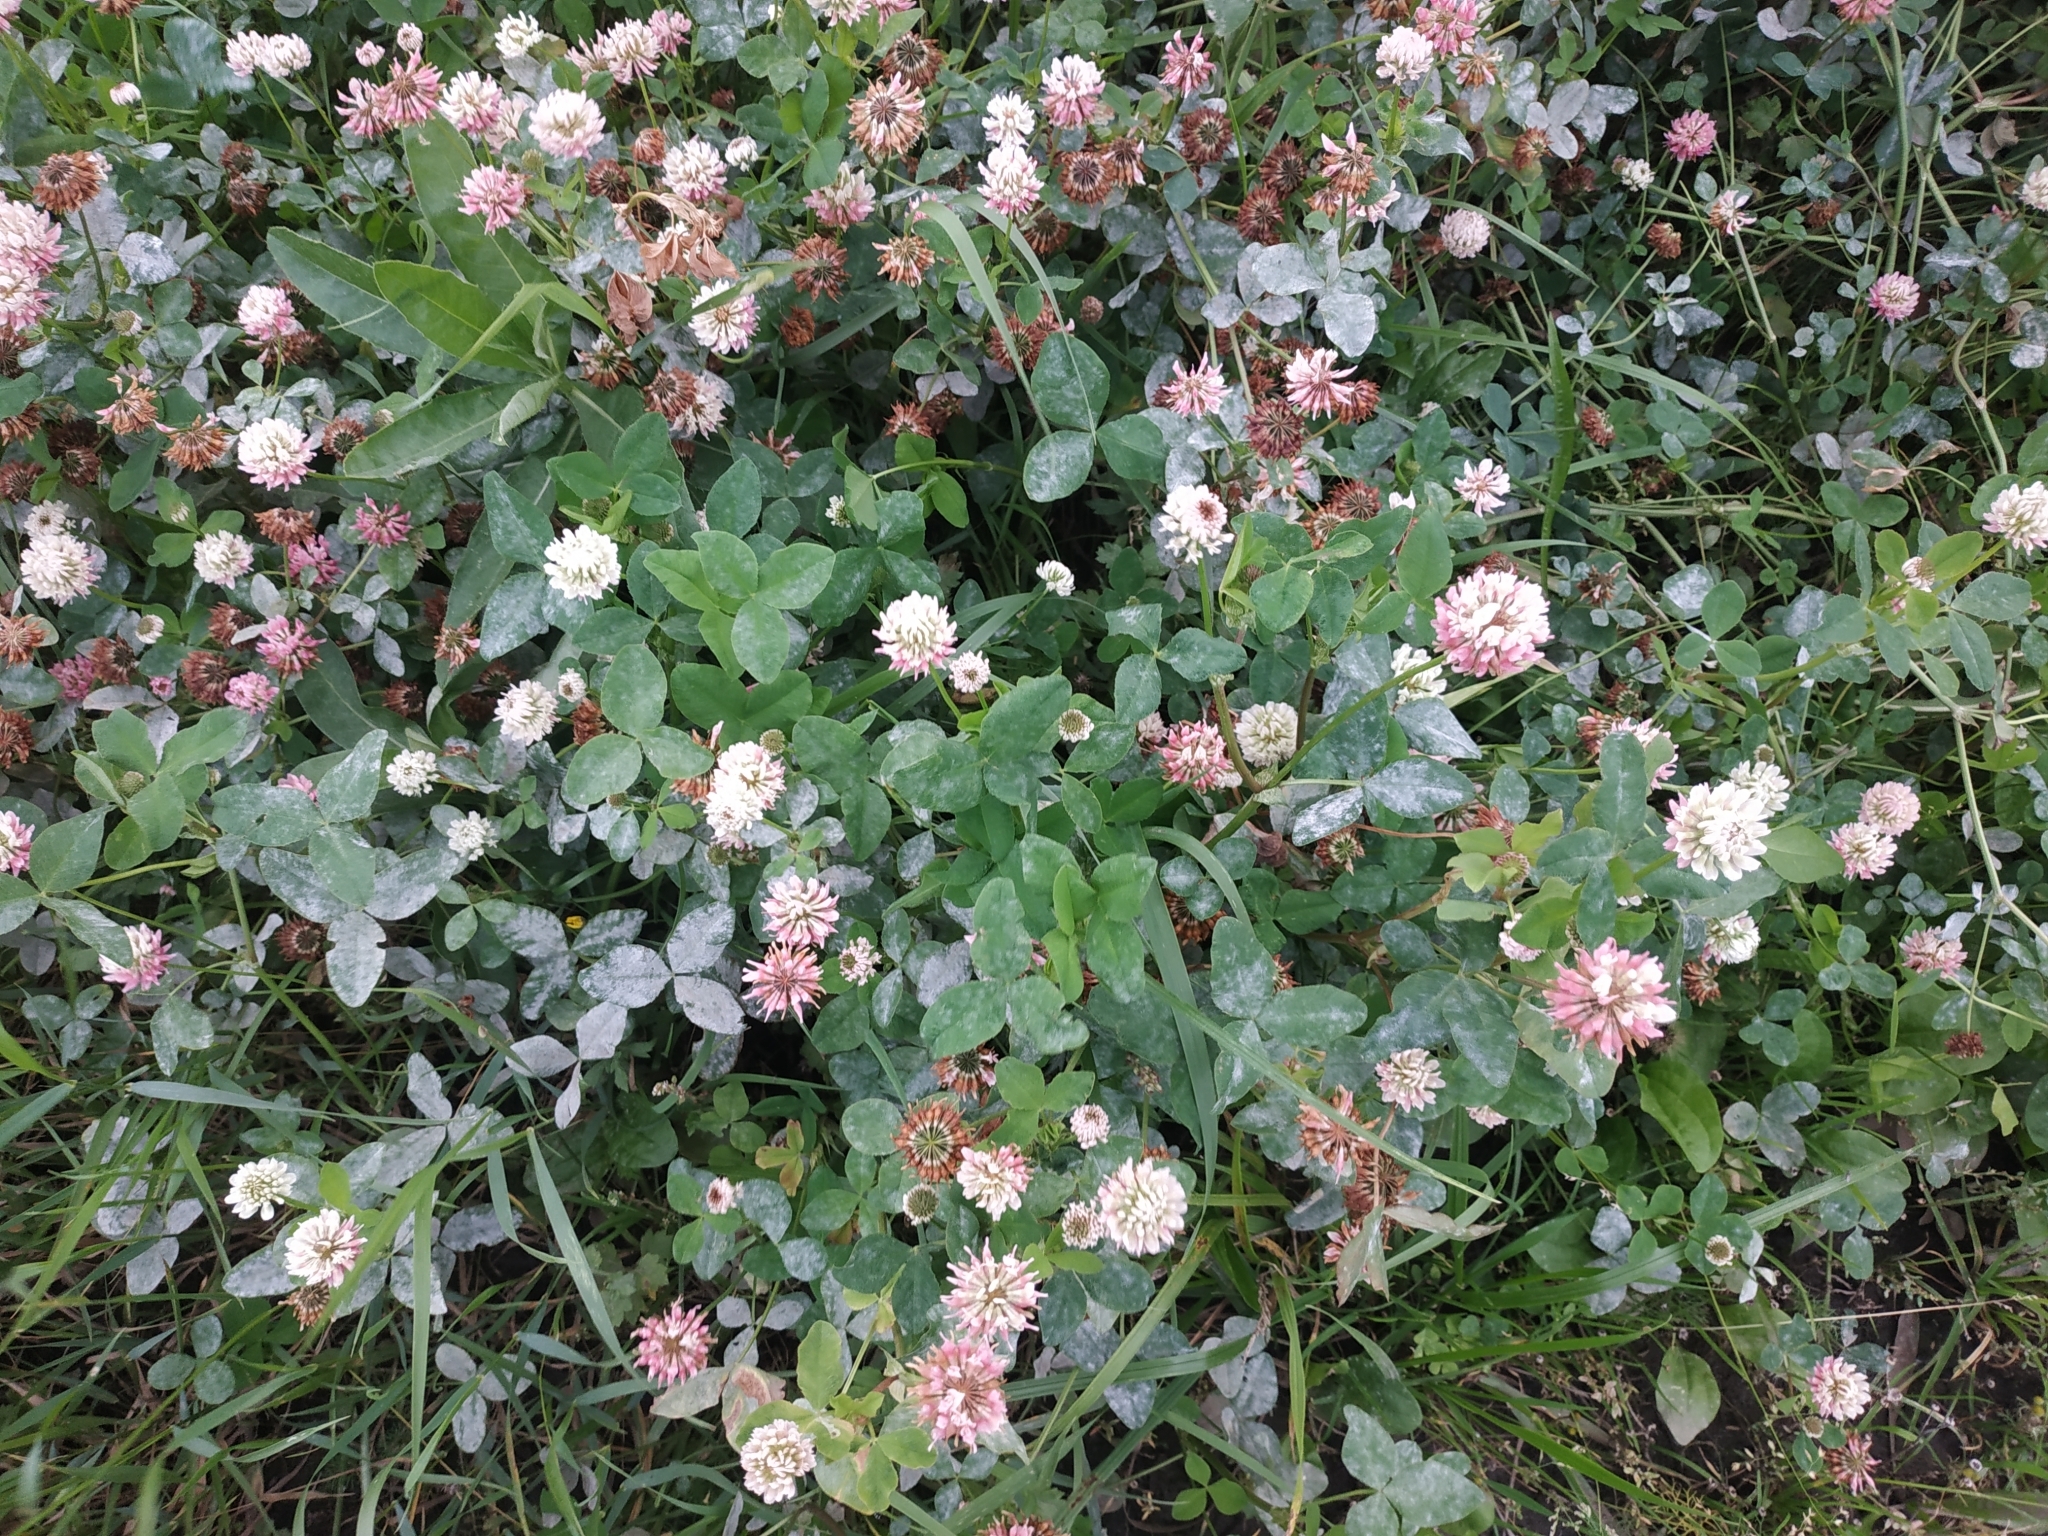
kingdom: Plantae
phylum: Tracheophyta
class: Magnoliopsida
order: Fabales
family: Fabaceae
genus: Trifolium
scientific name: Trifolium hybridum
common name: Alsike clover
